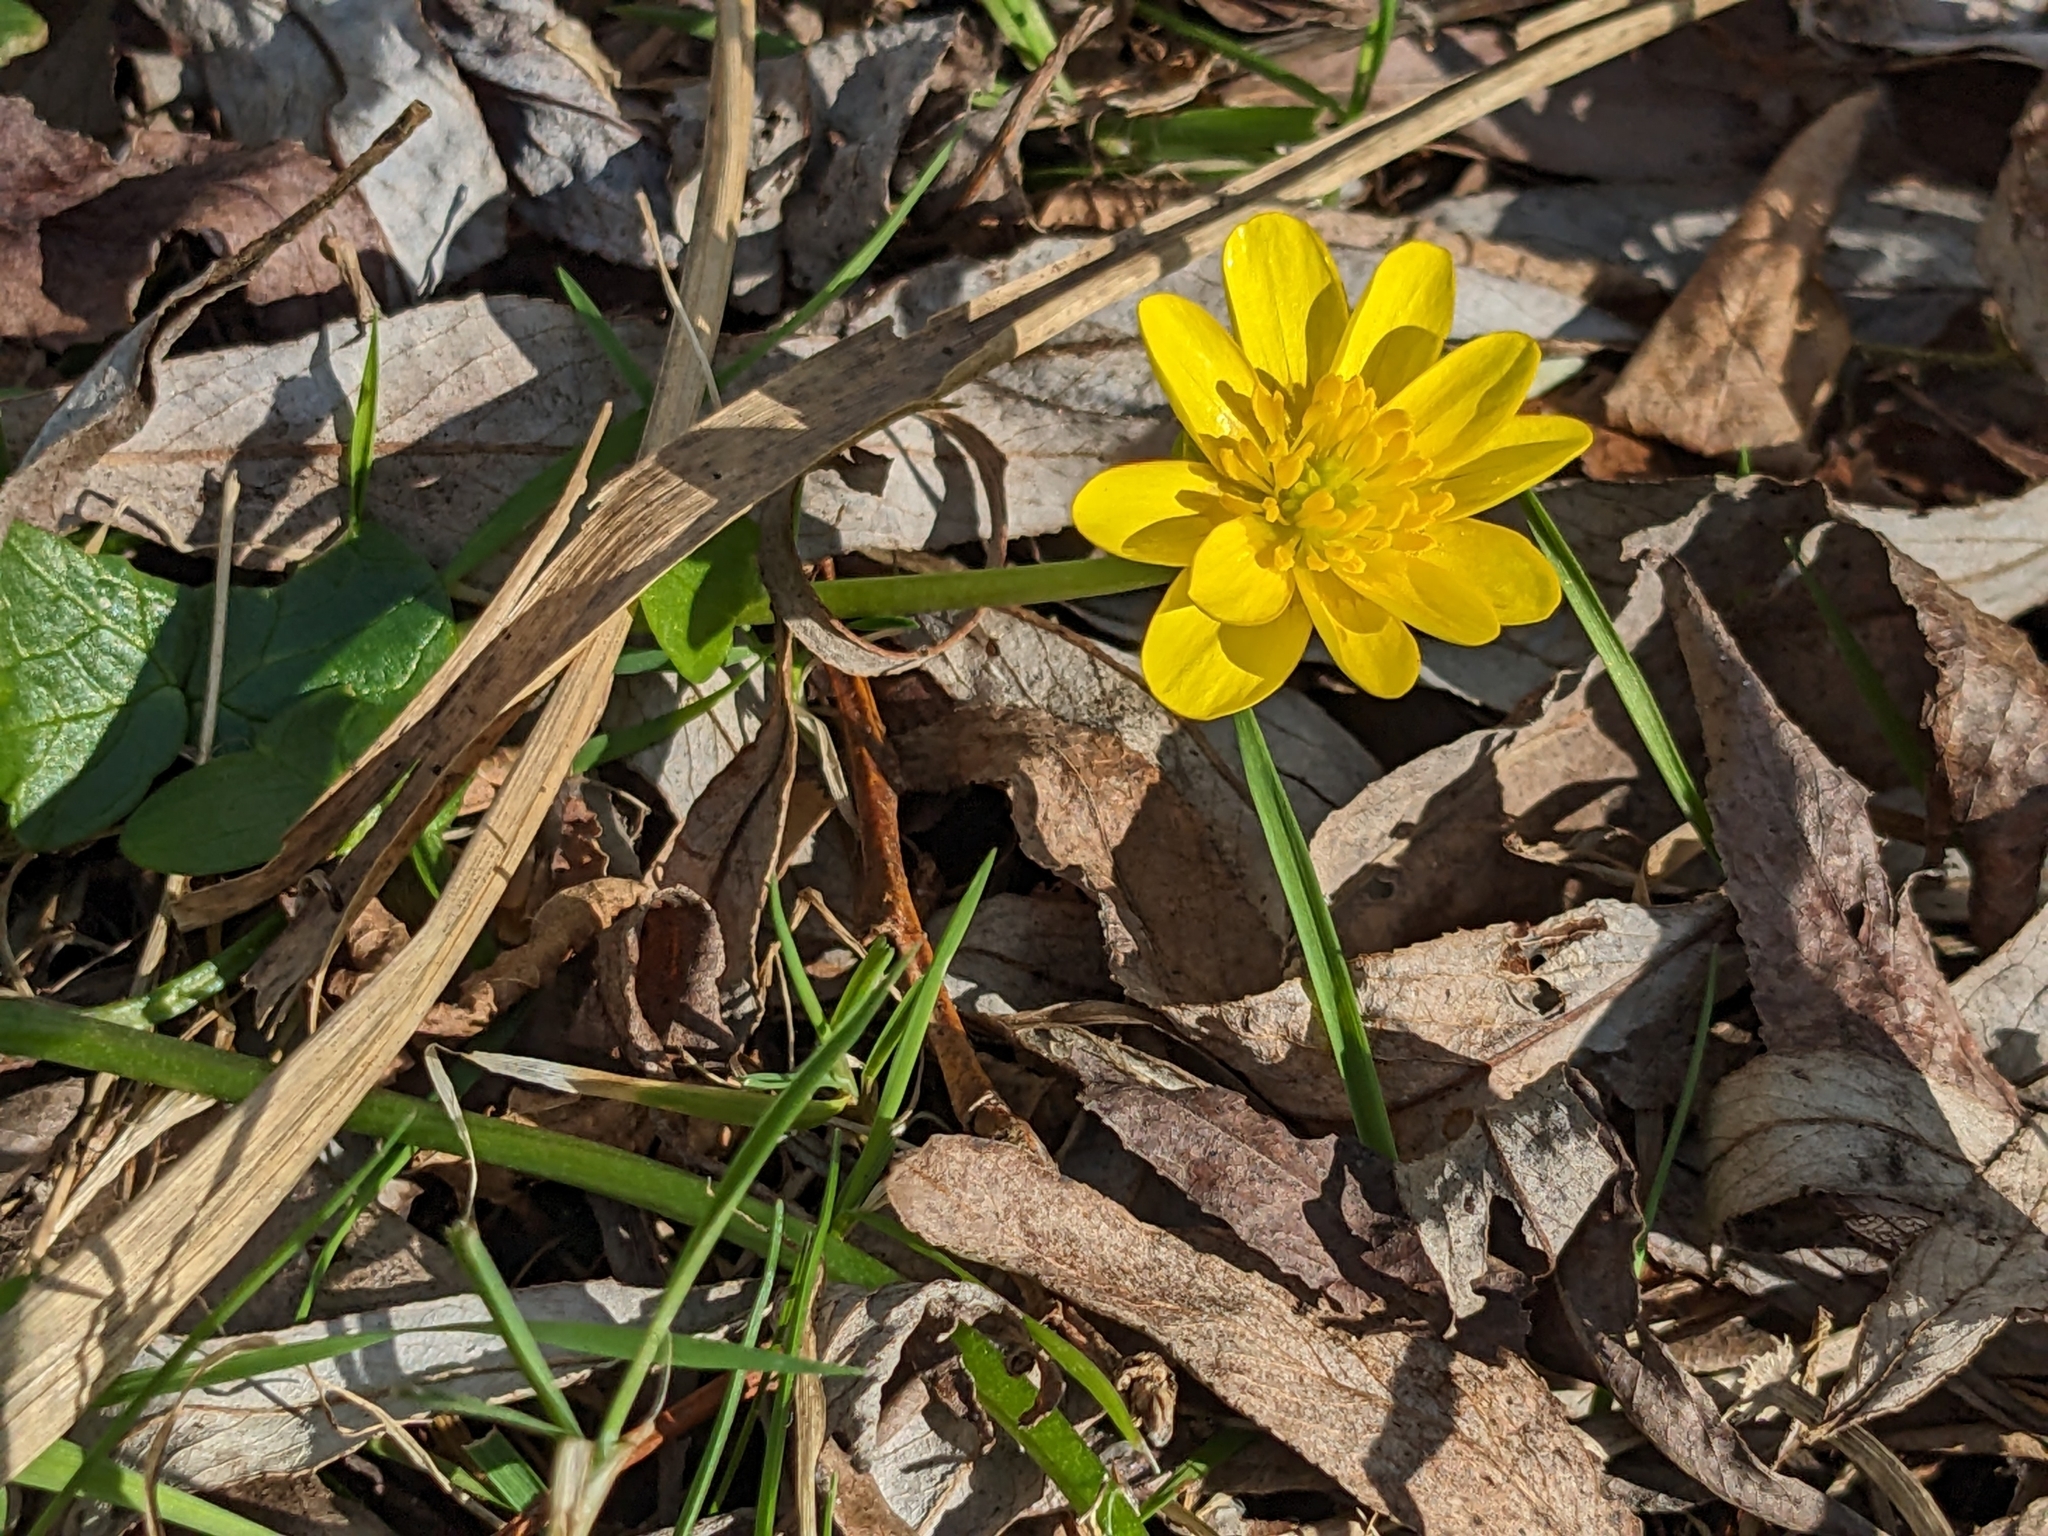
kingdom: Plantae
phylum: Tracheophyta
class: Magnoliopsida
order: Ranunculales
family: Ranunculaceae
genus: Ficaria
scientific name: Ficaria verna
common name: Lesser celandine
